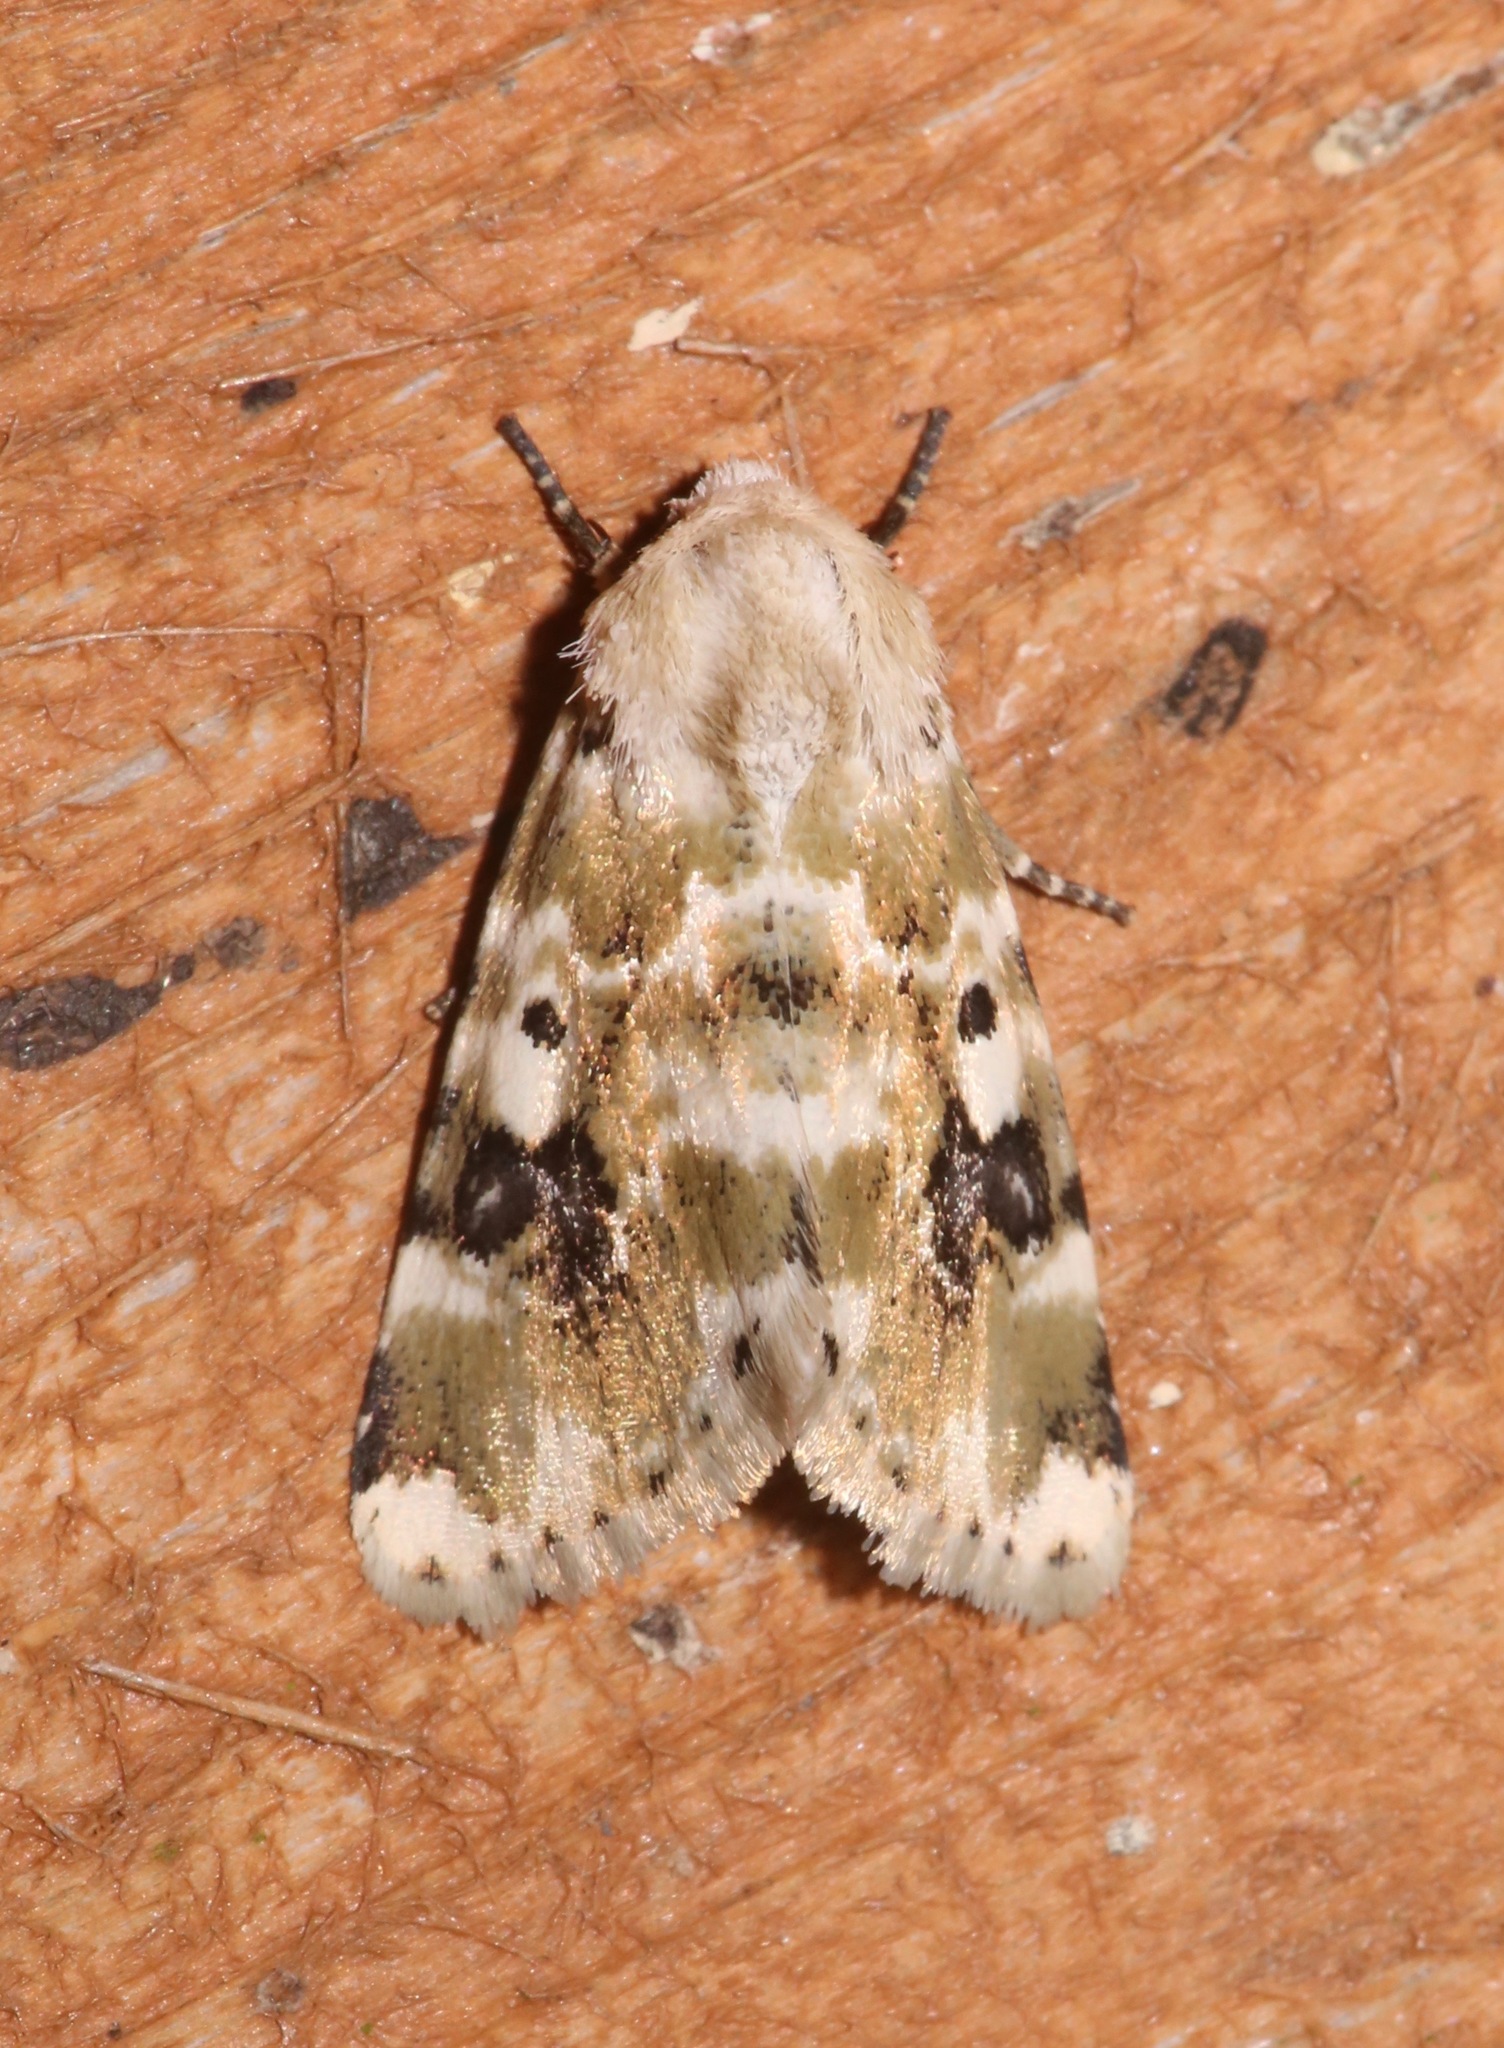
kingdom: Animalia
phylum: Arthropoda
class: Insecta
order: Lepidoptera
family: Noctuidae
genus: Schinia
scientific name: Schinia nundina
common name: Goldenrod flower moth
